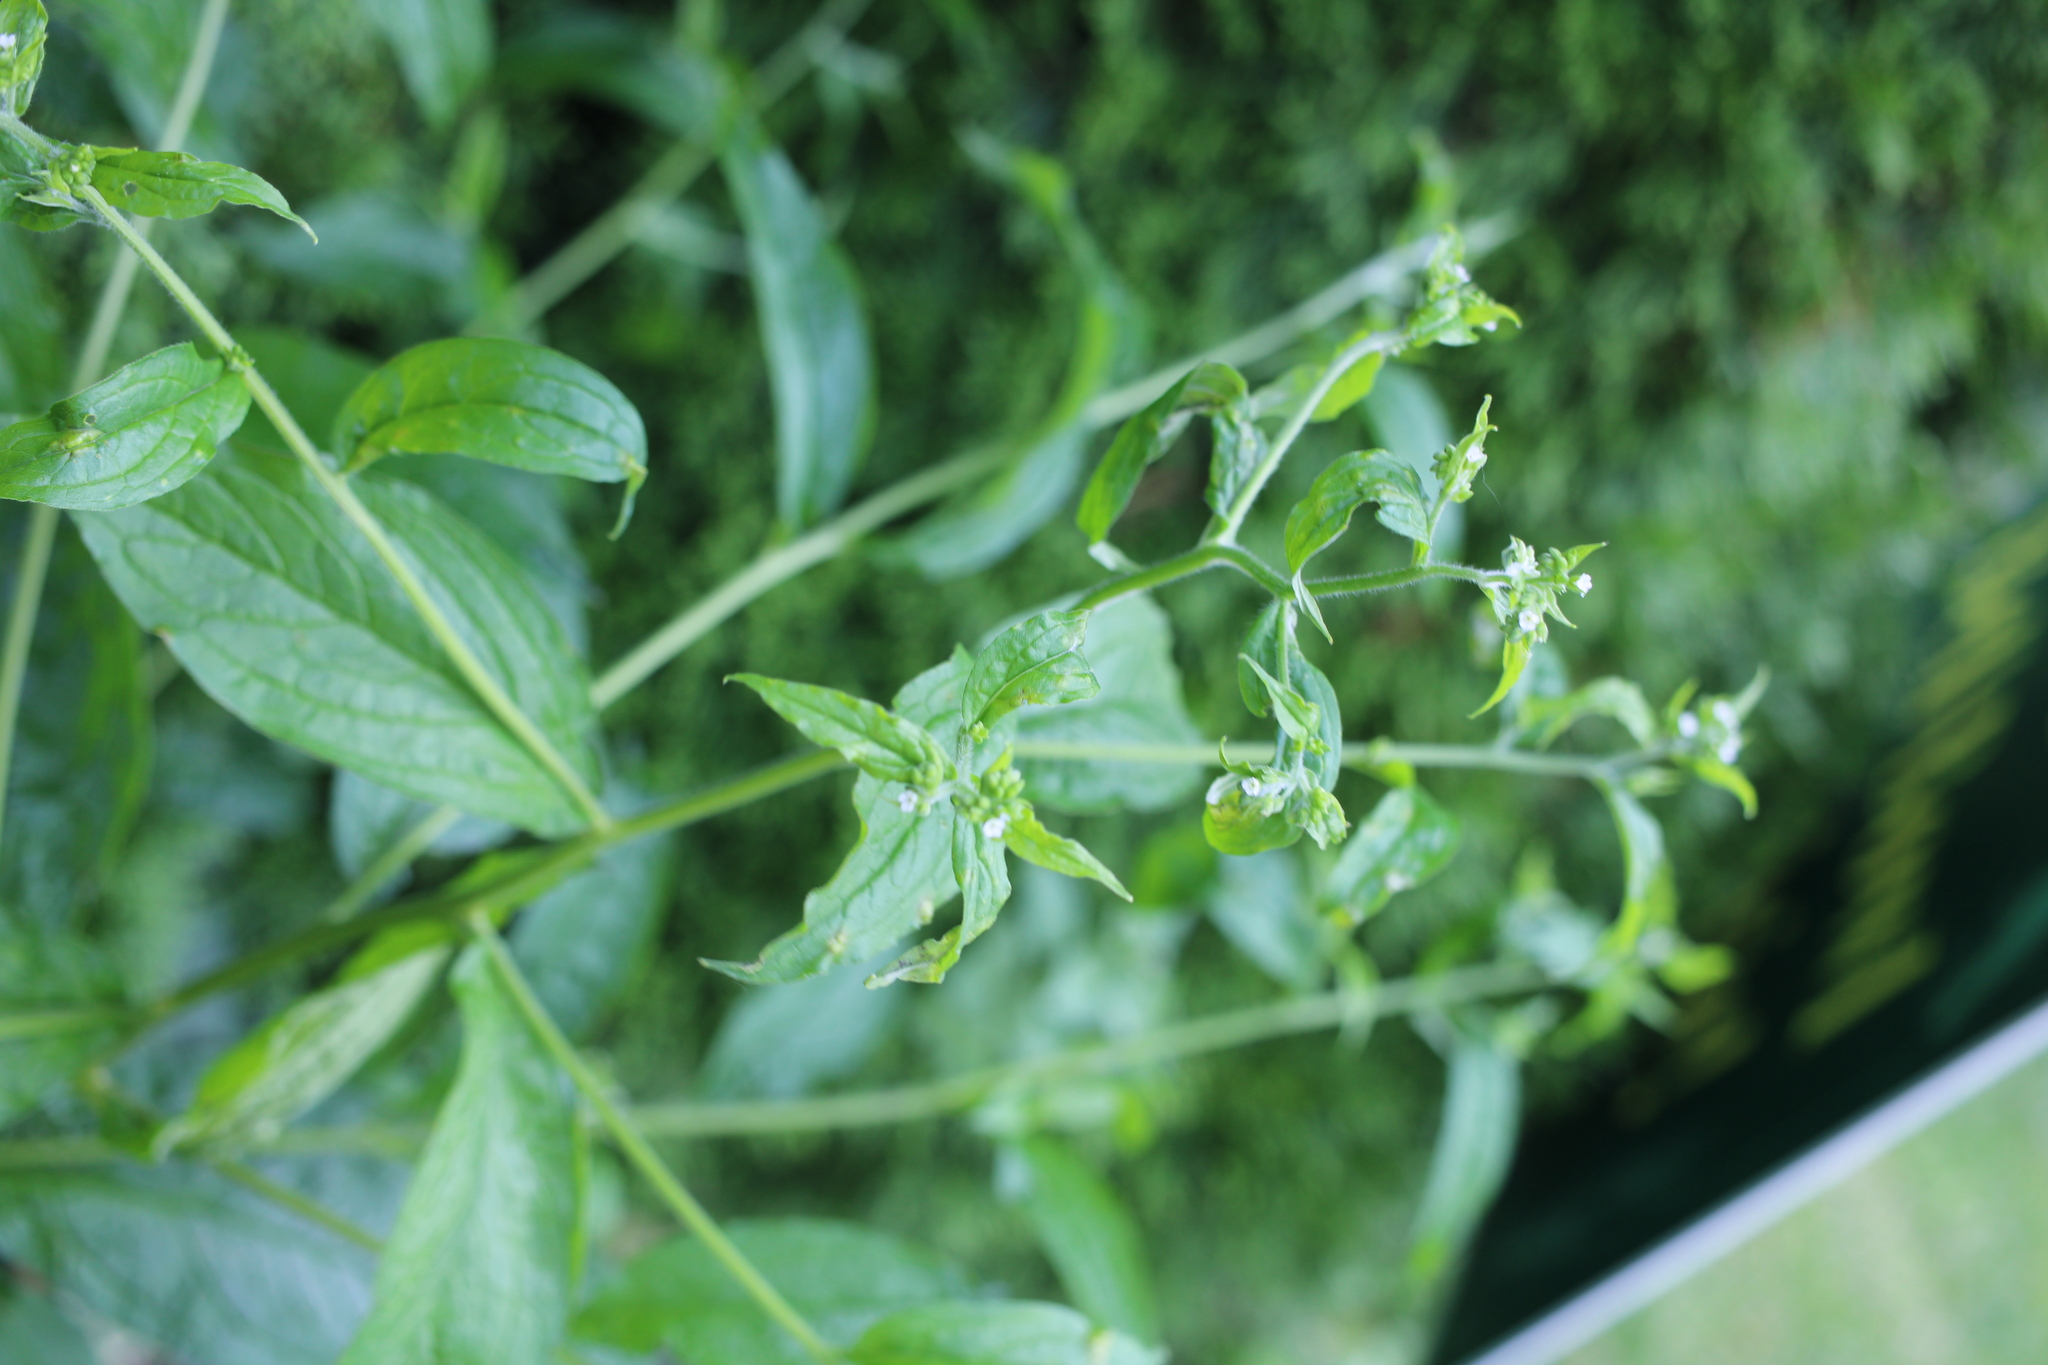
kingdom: Plantae
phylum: Tracheophyta
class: Magnoliopsida
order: Boraginales
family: Boraginaceae
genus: Hackelia
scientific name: Hackelia virginiana
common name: Beggar's-lice
